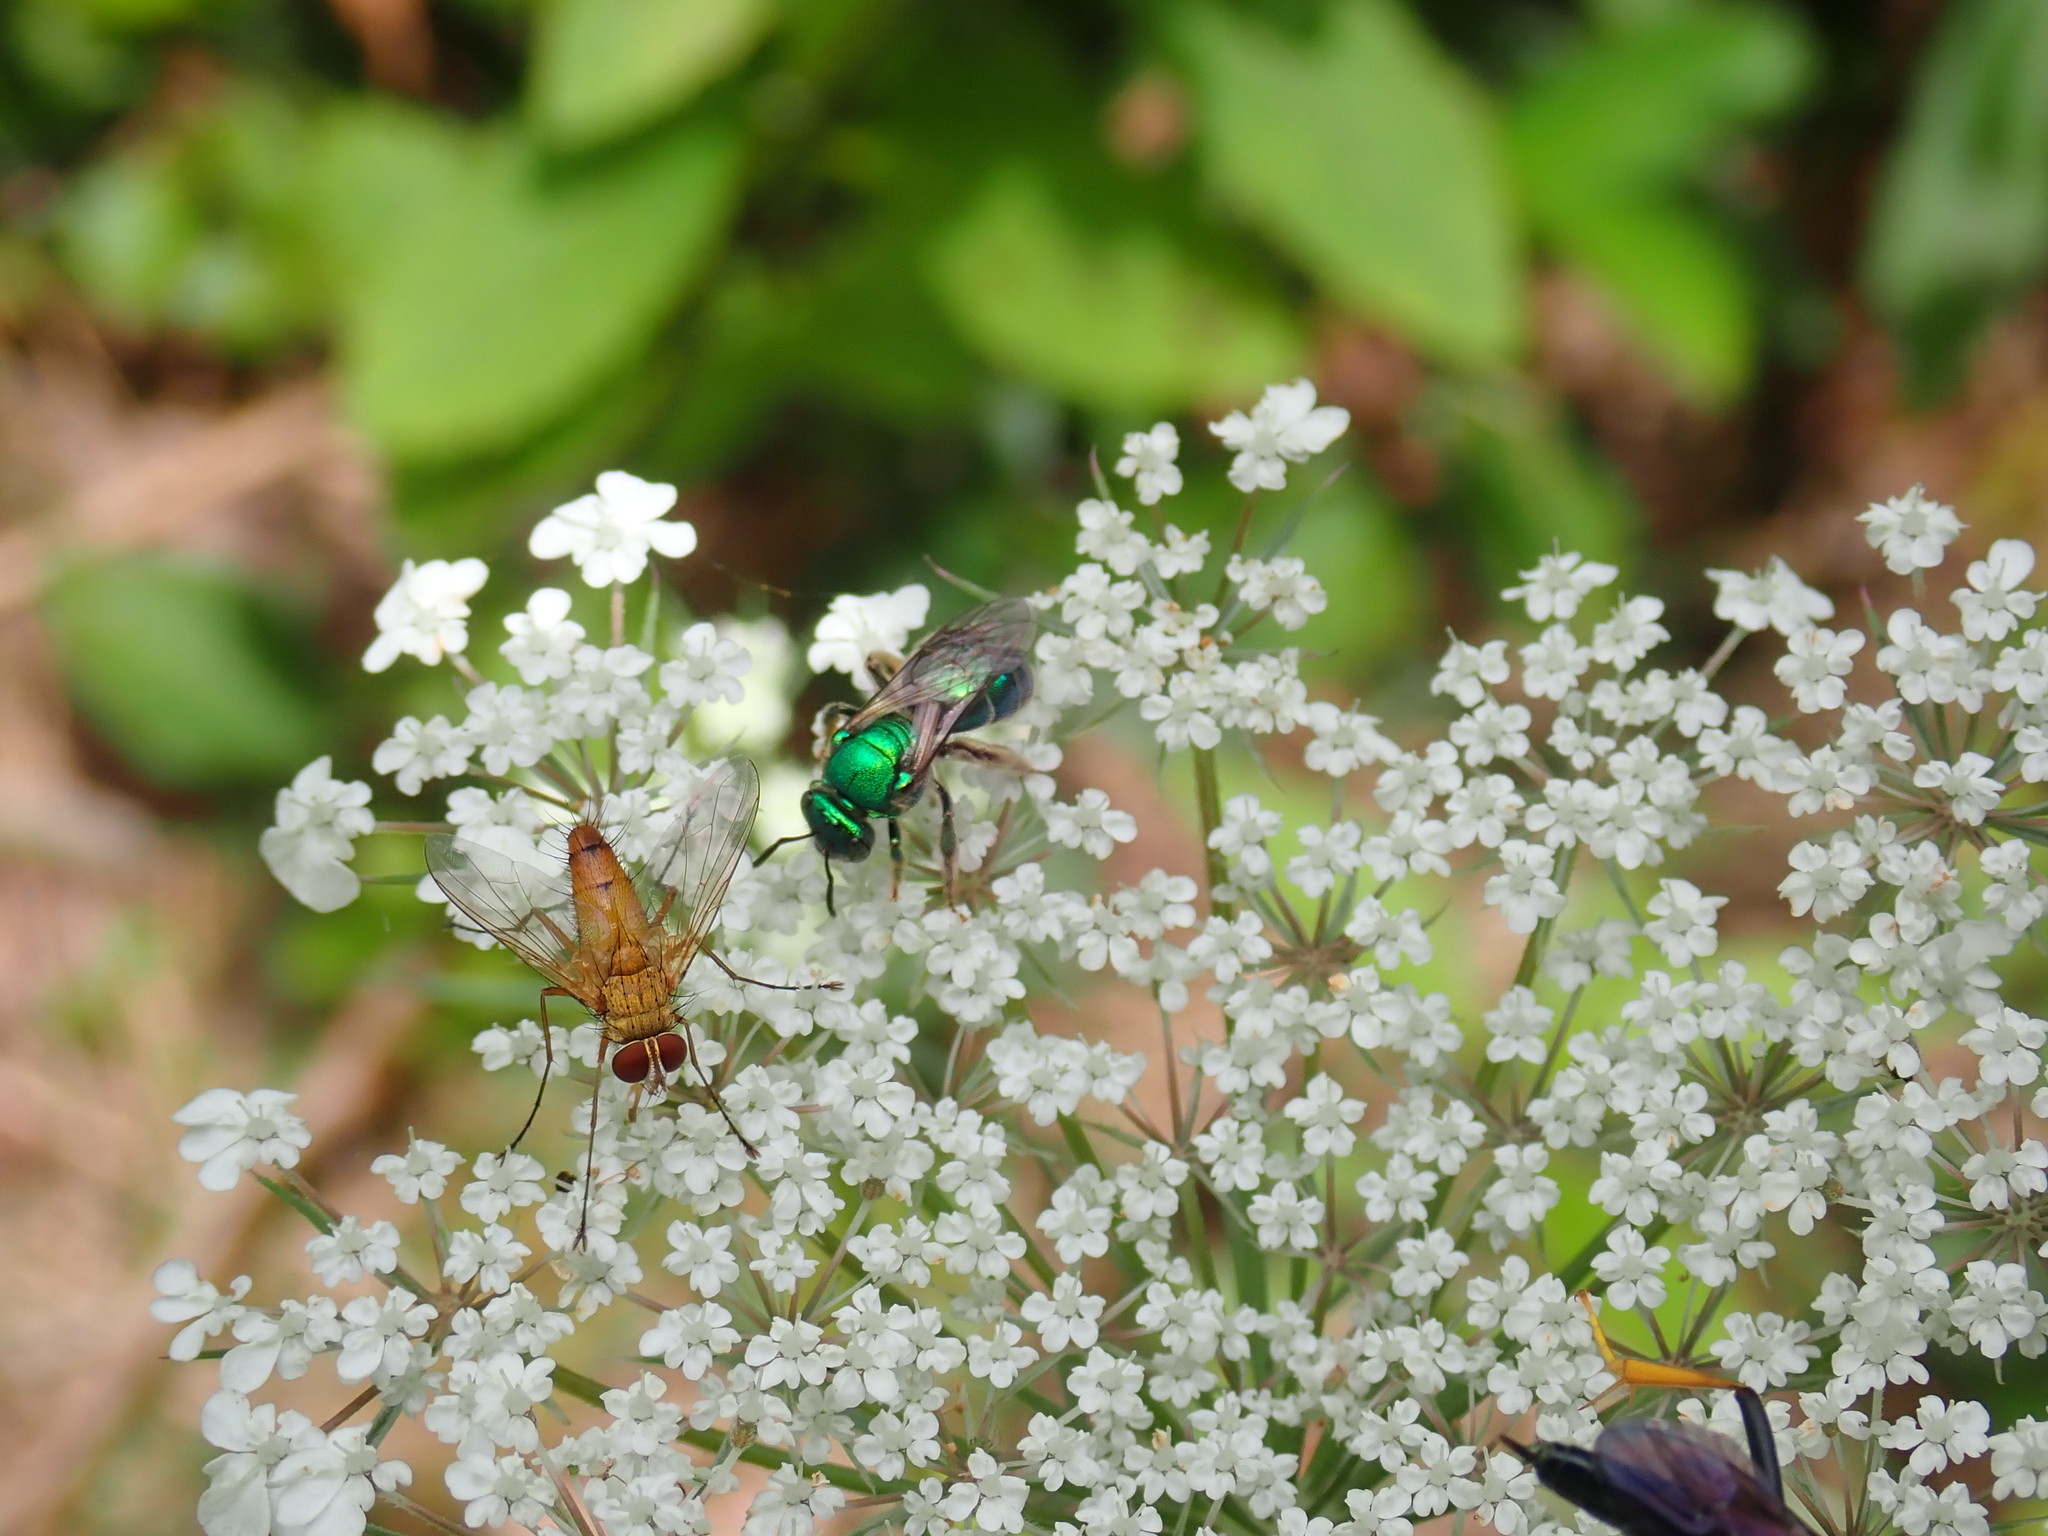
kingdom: Animalia
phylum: Arthropoda
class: Insecta
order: Hymenoptera
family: Halictidae
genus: Augochloropsis
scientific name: Augochloropsis viridula
